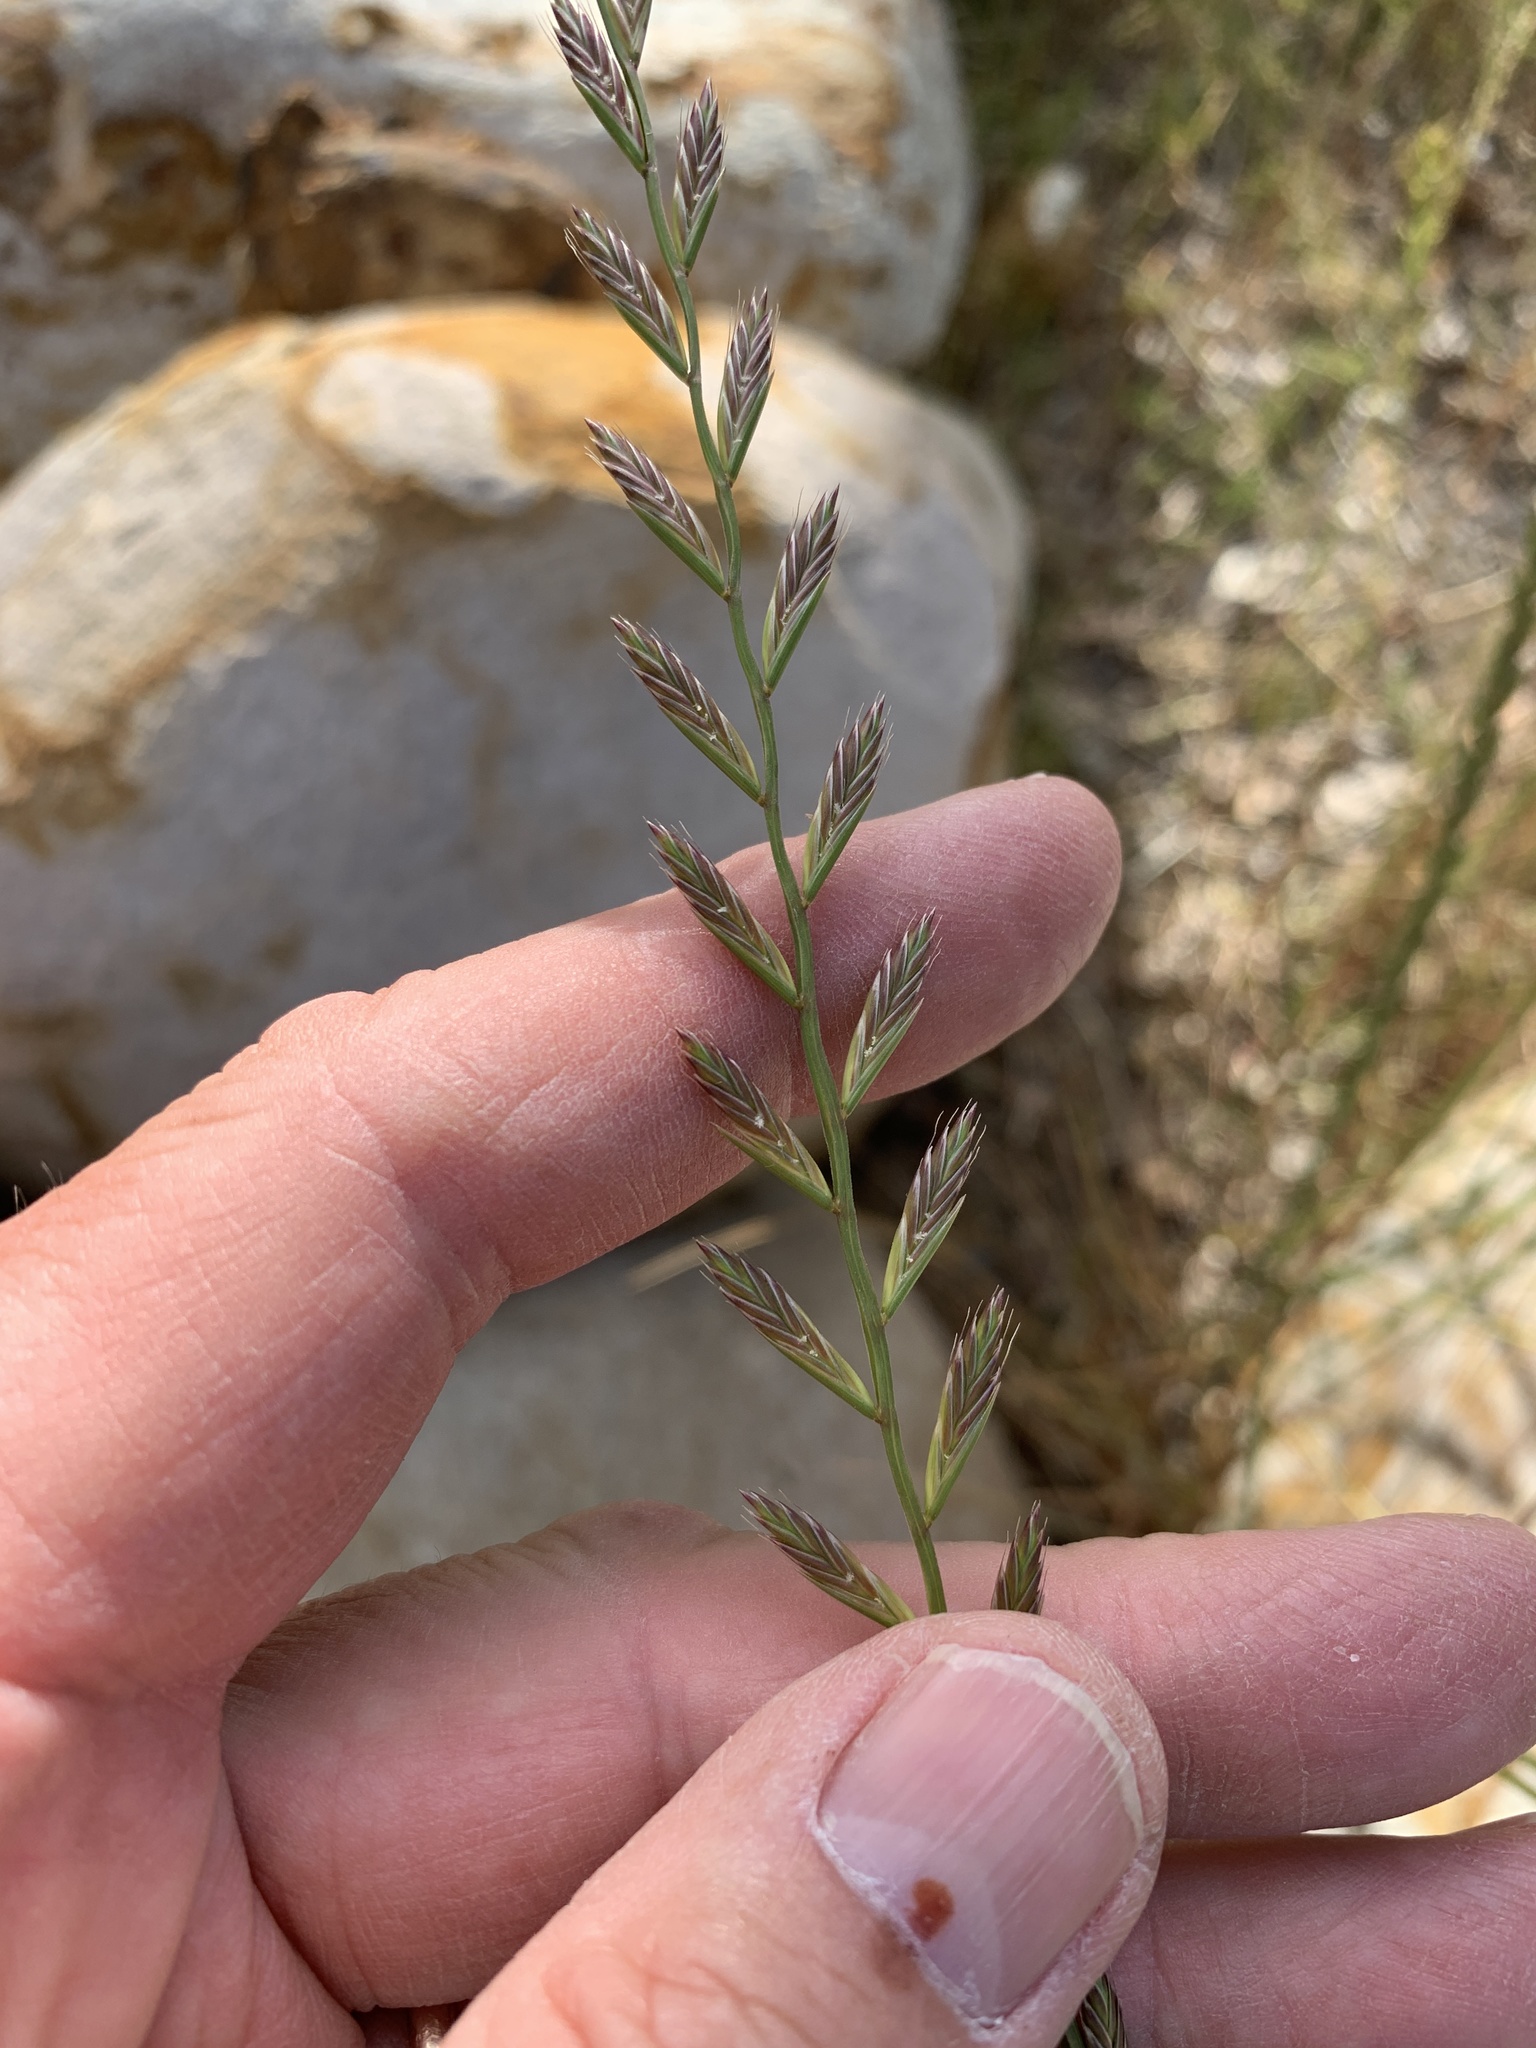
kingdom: Plantae
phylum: Tracheophyta
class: Liliopsida
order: Poales
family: Poaceae
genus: Lolium
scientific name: Lolium
